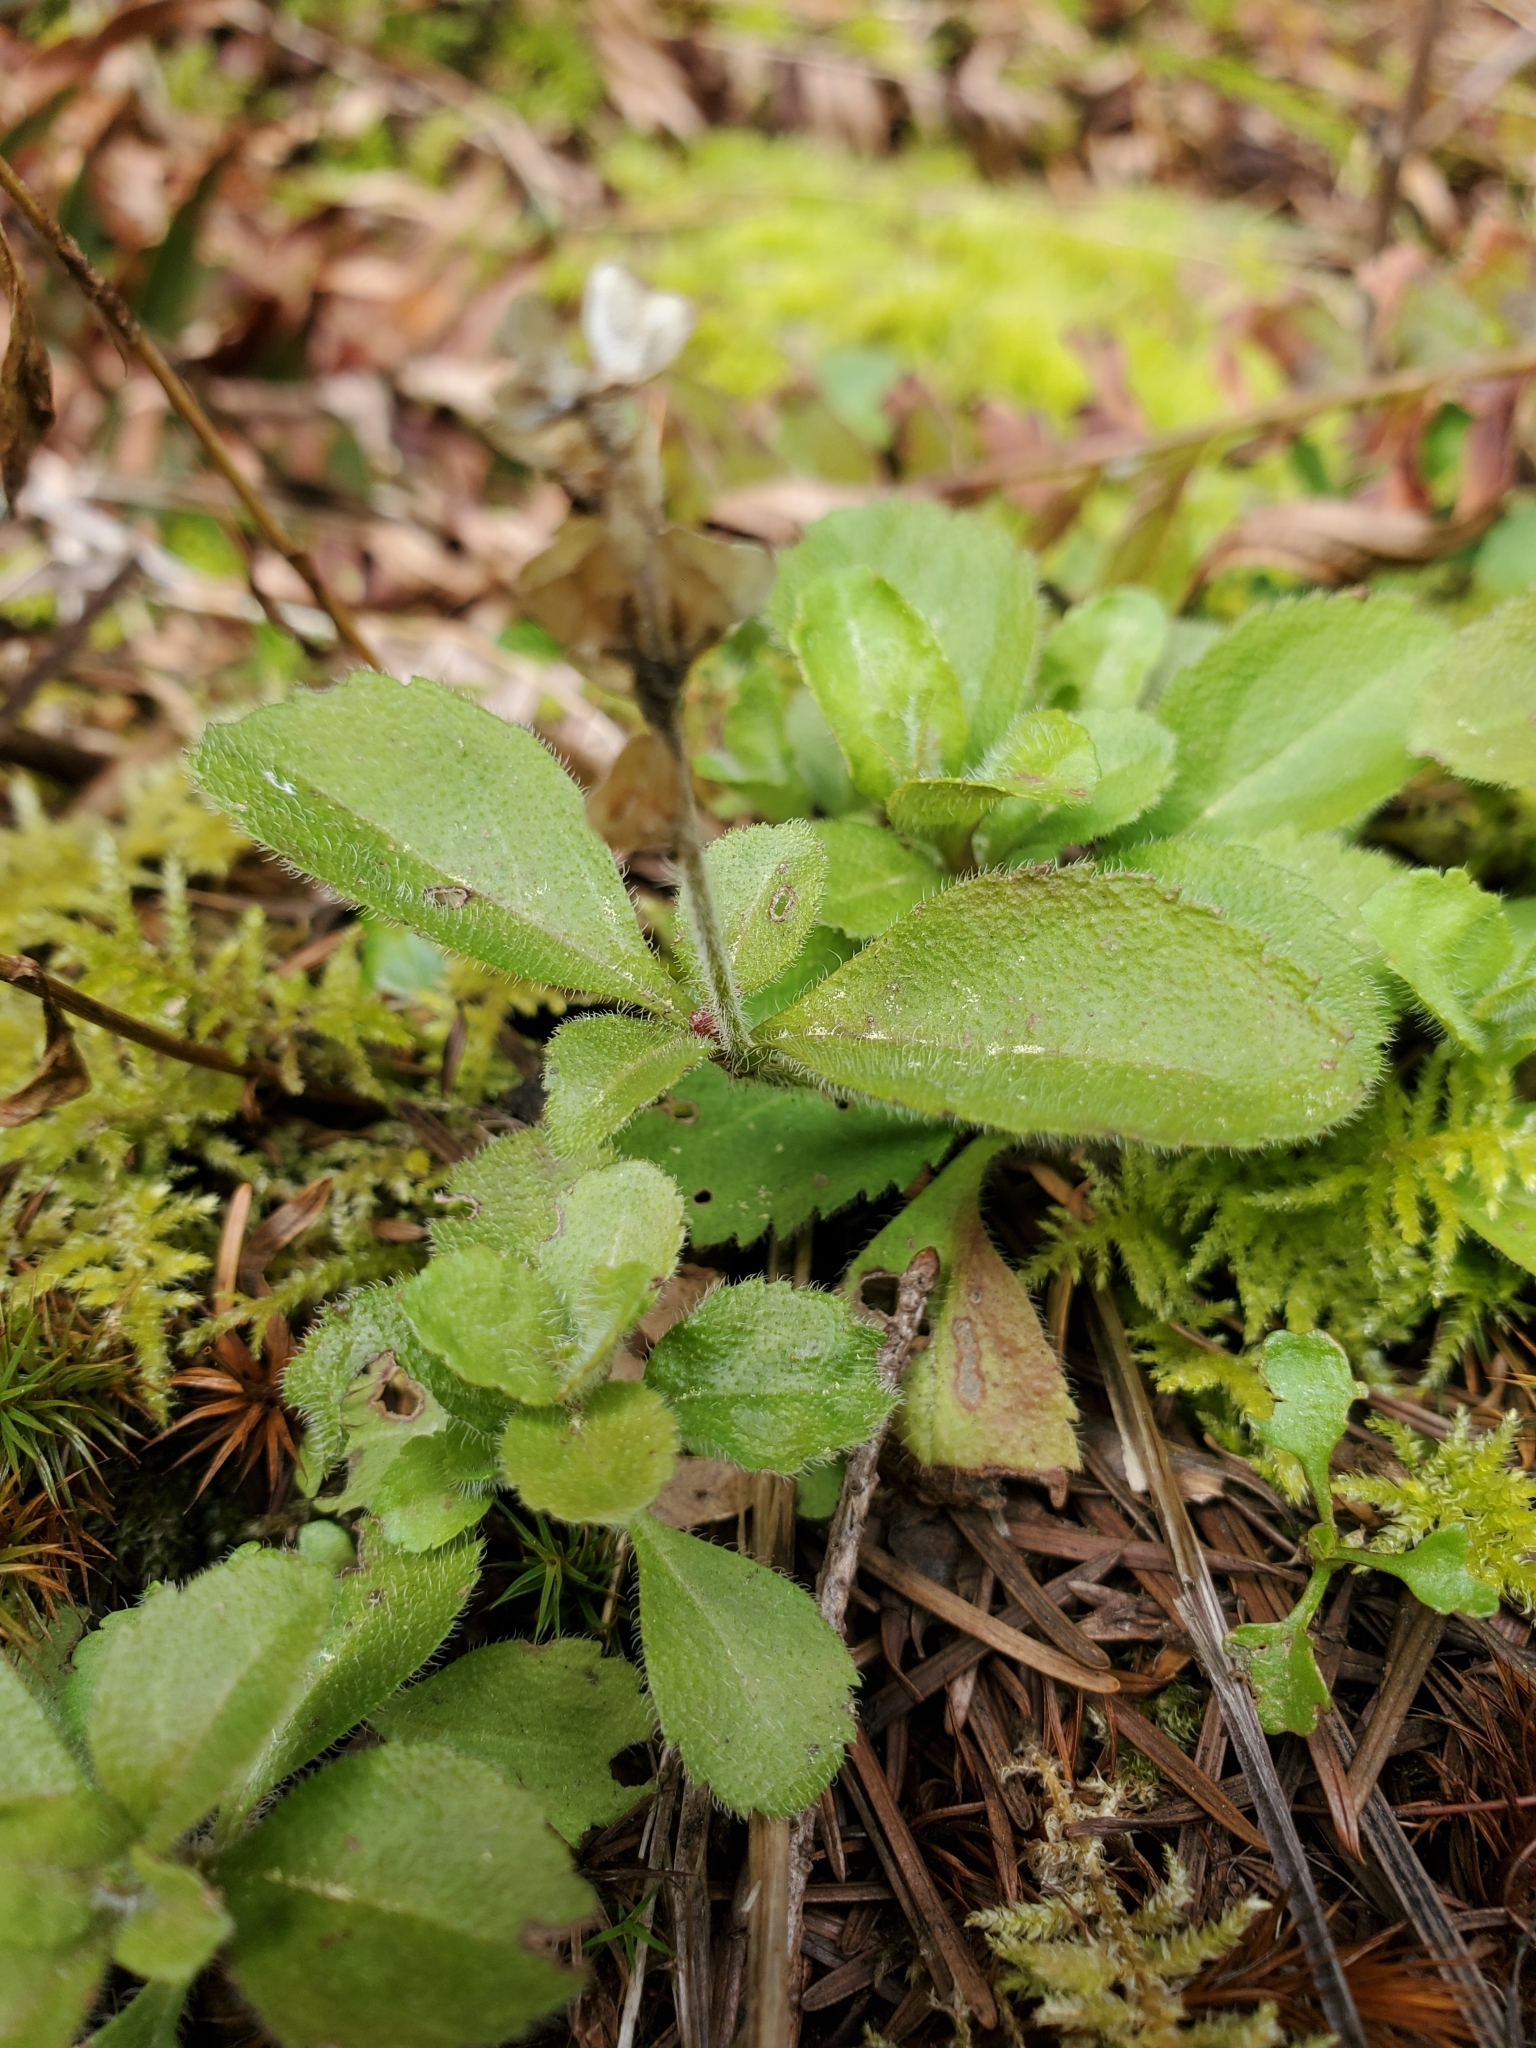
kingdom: Plantae
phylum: Tracheophyta
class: Magnoliopsida
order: Lamiales
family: Plantaginaceae
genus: Veronica
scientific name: Veronica officinalis
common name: Common speedwell
